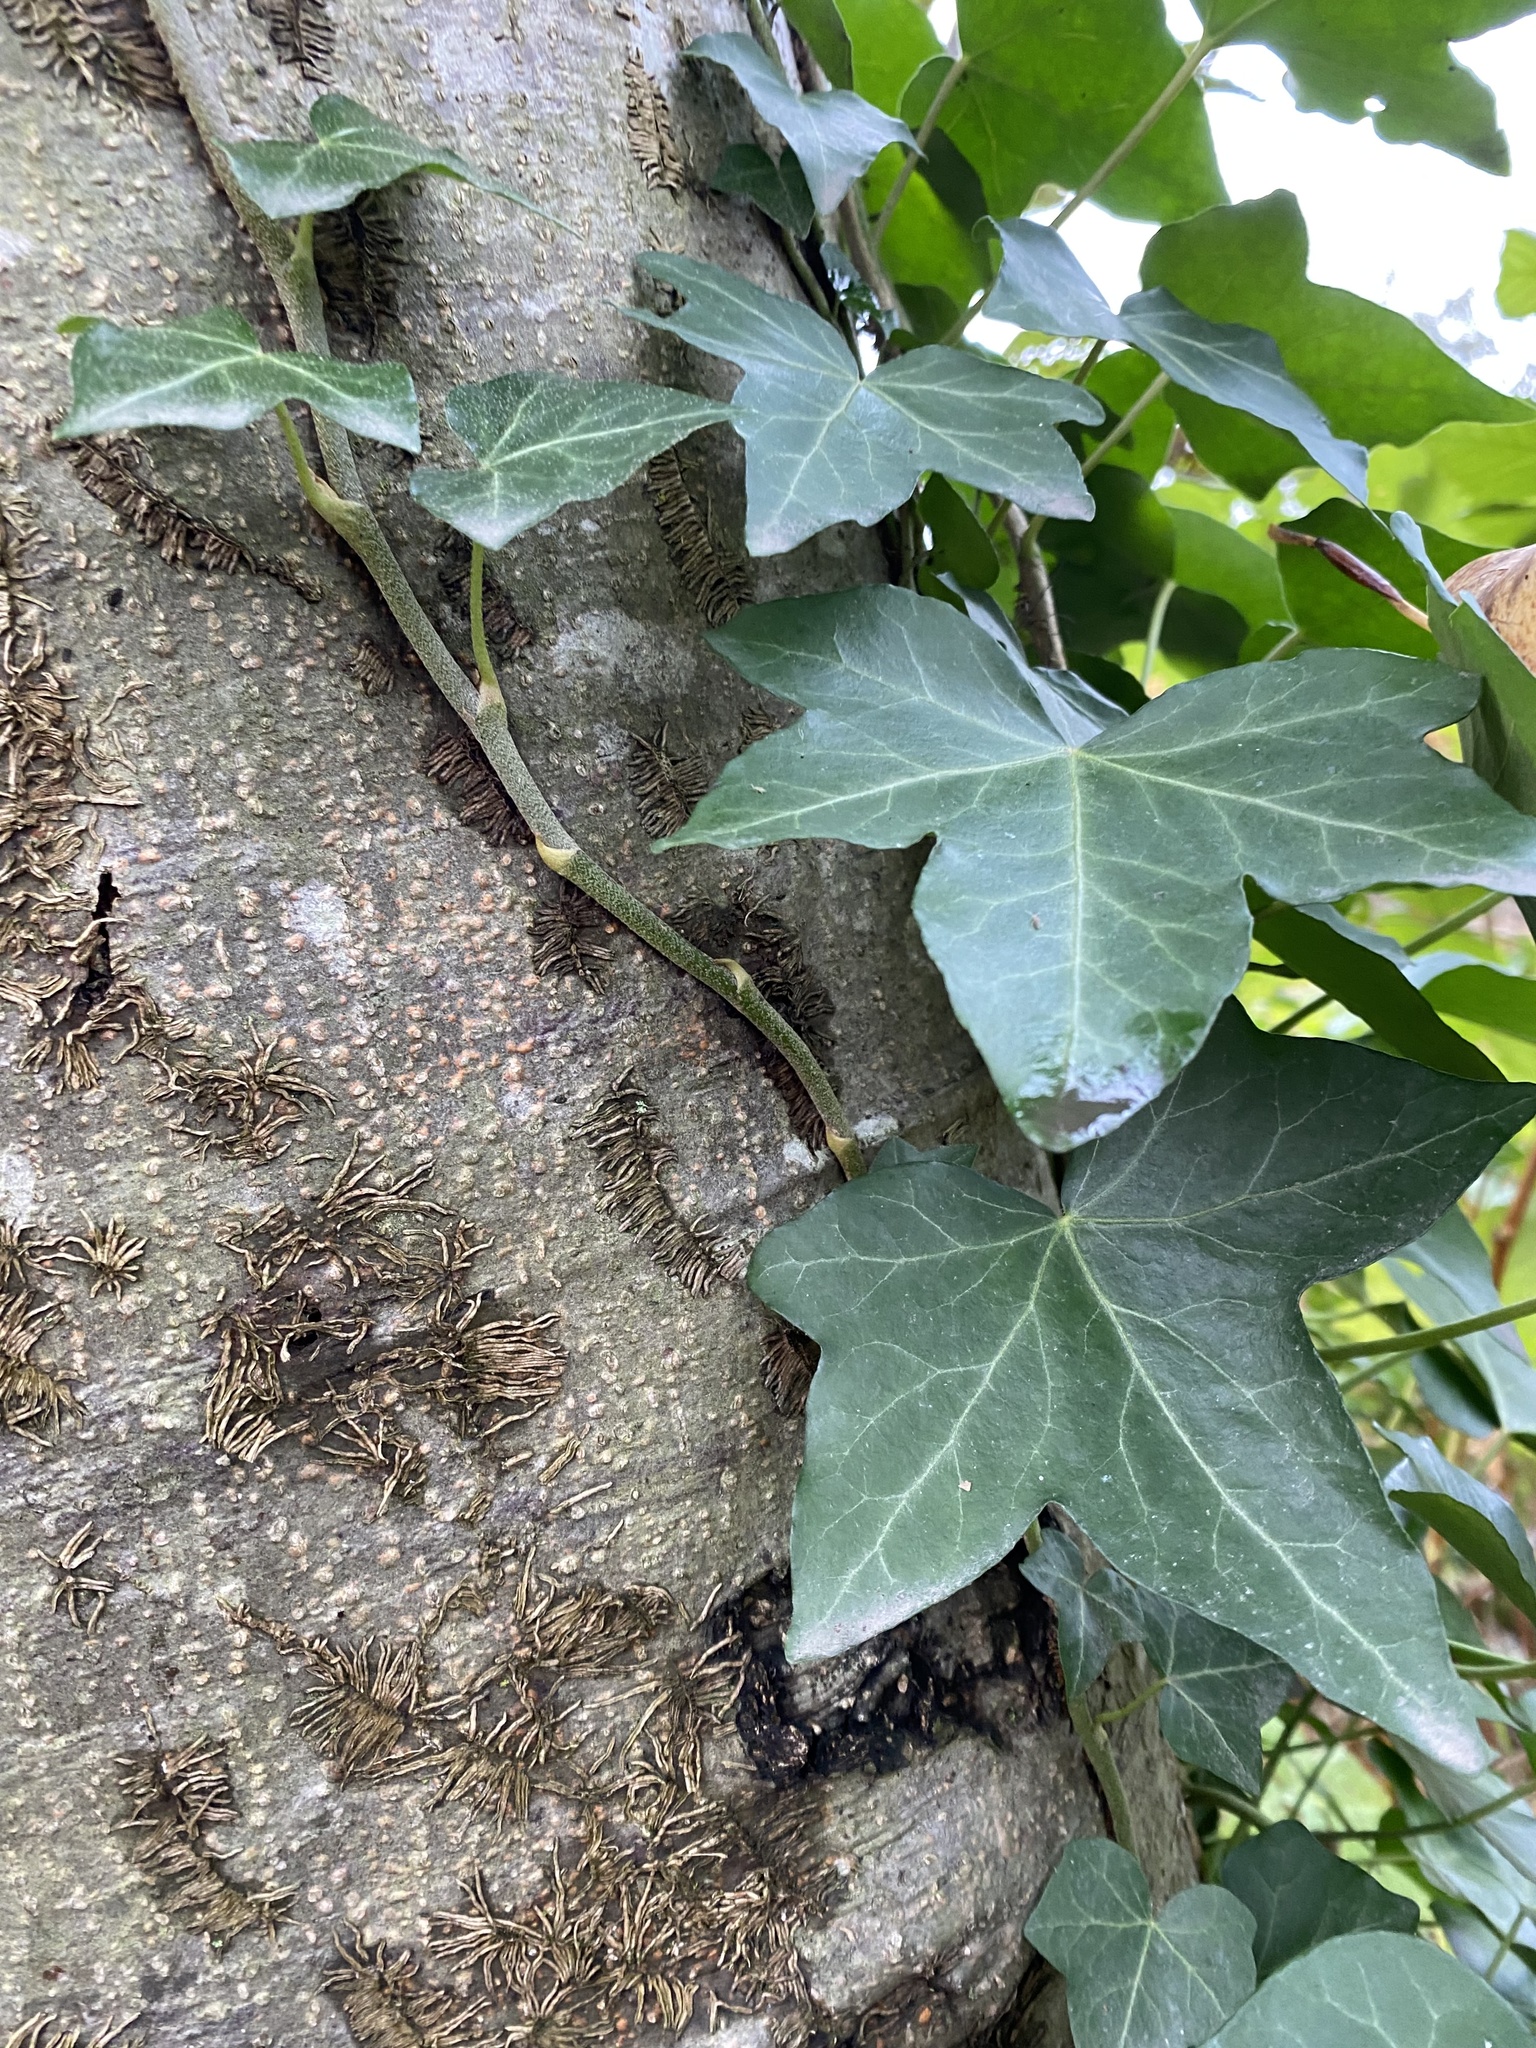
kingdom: Plantae
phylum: Tracheophyta
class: Magnoliopsida
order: Apiales
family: Araliaceae
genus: Hedera
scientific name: Hedera helix
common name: Ivy
